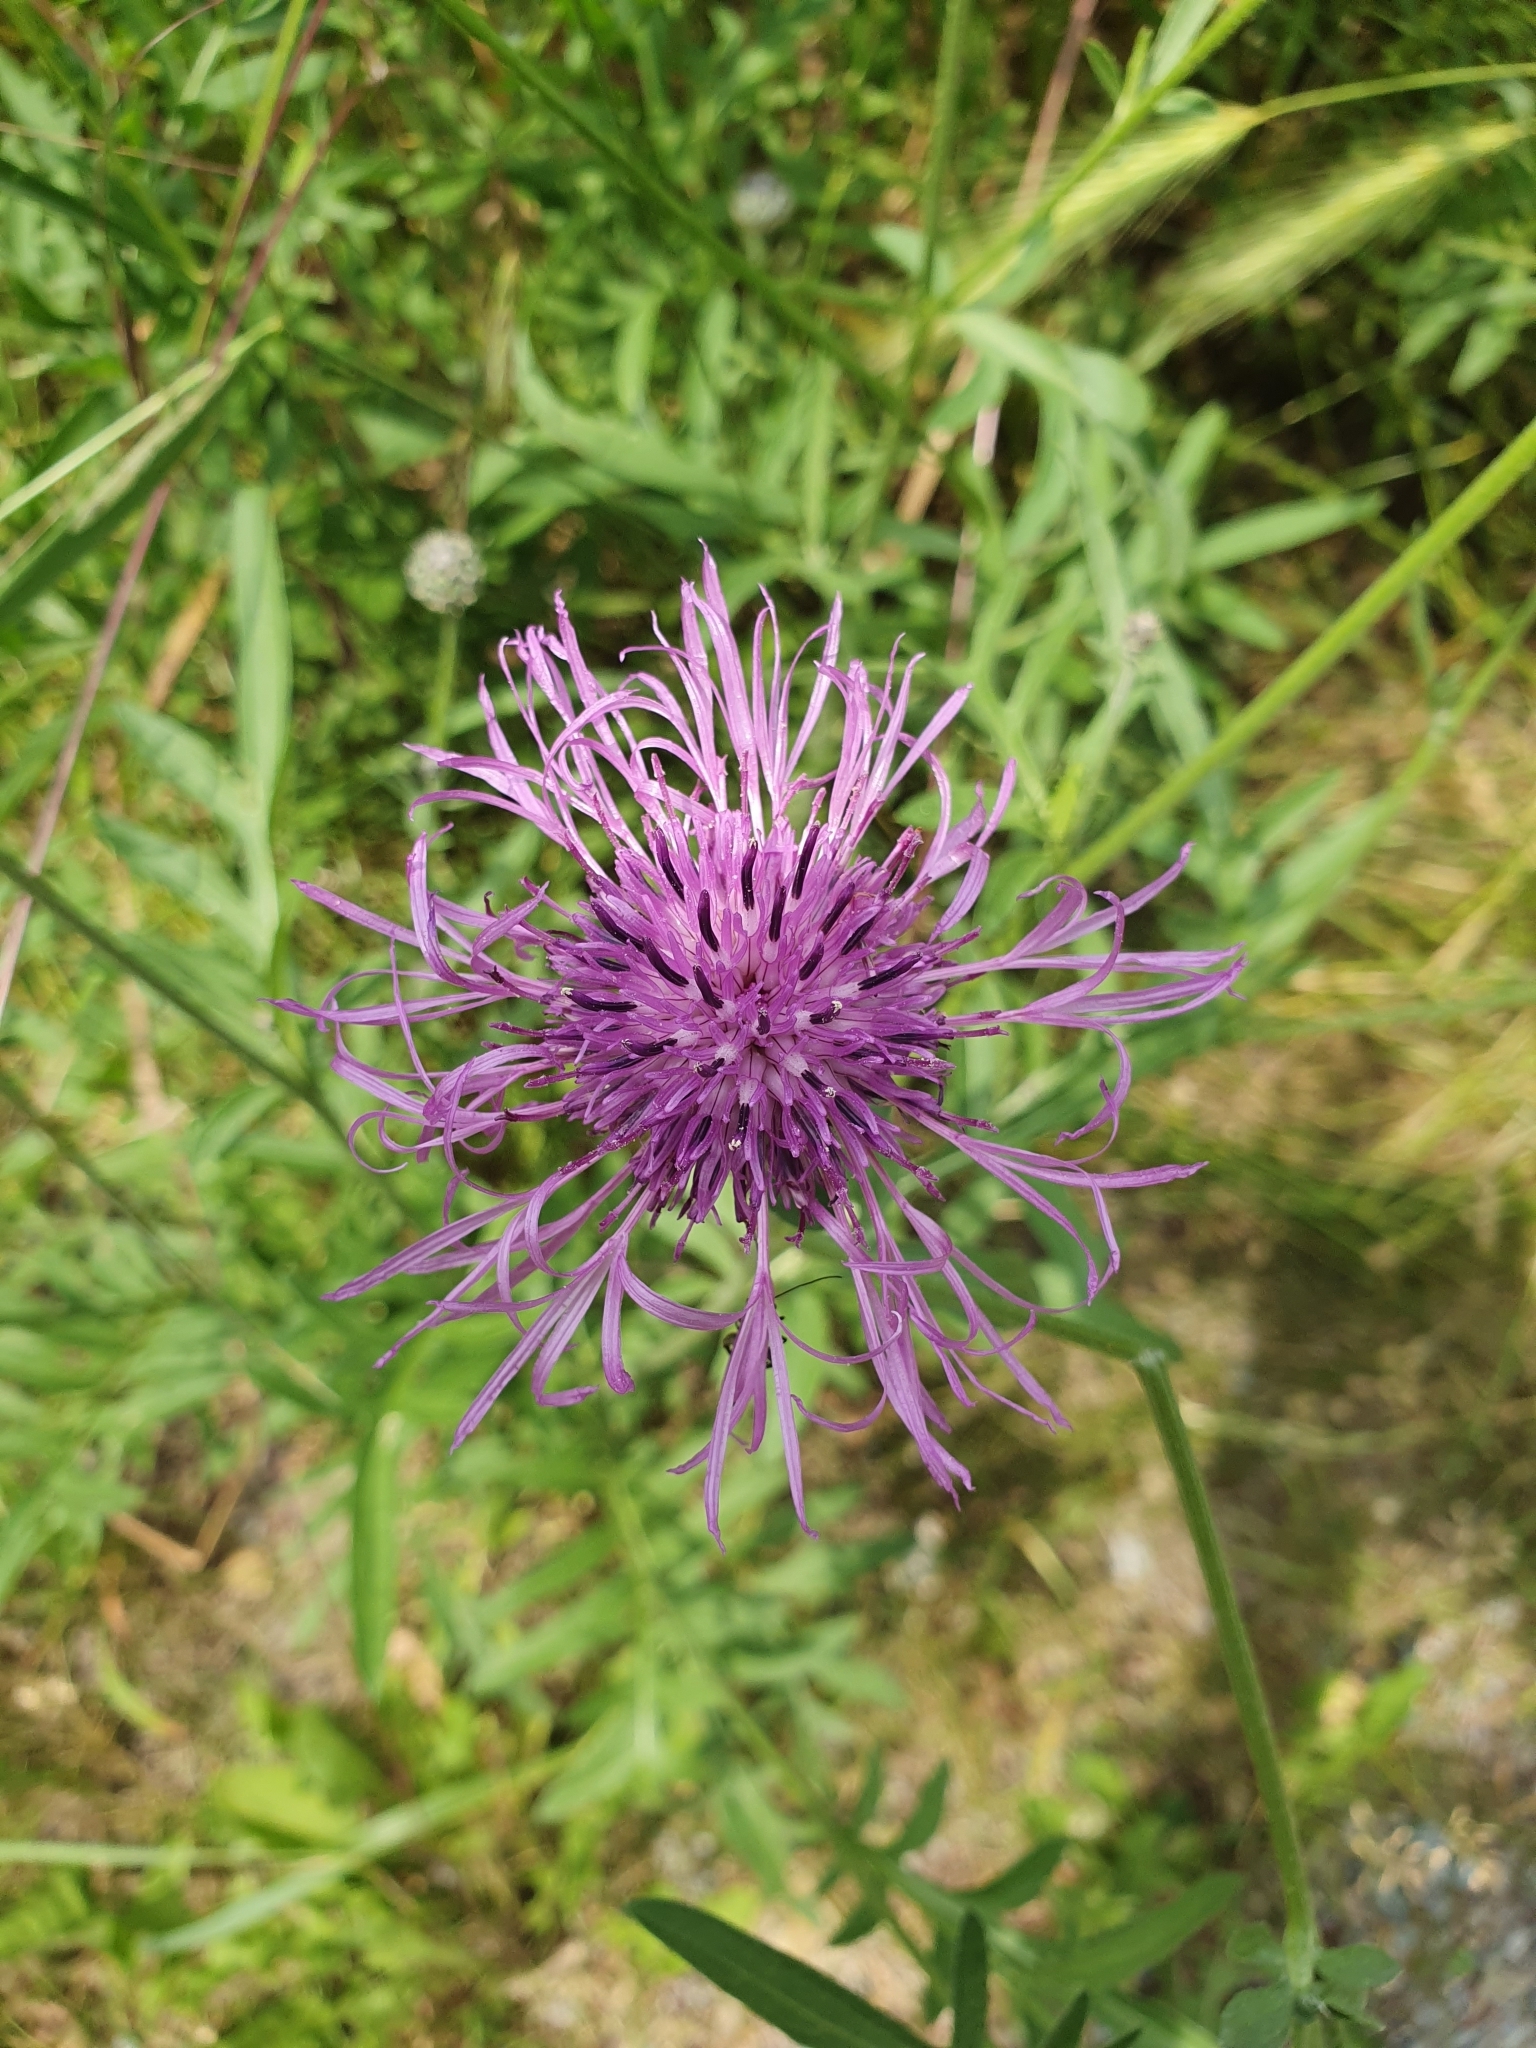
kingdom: Plantae
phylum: Tracheophyta
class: Magnoliopsida
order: Asterales
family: Asteraceae
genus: Centaurea
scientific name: Centaurea scabiosa
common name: Greater knapweed
